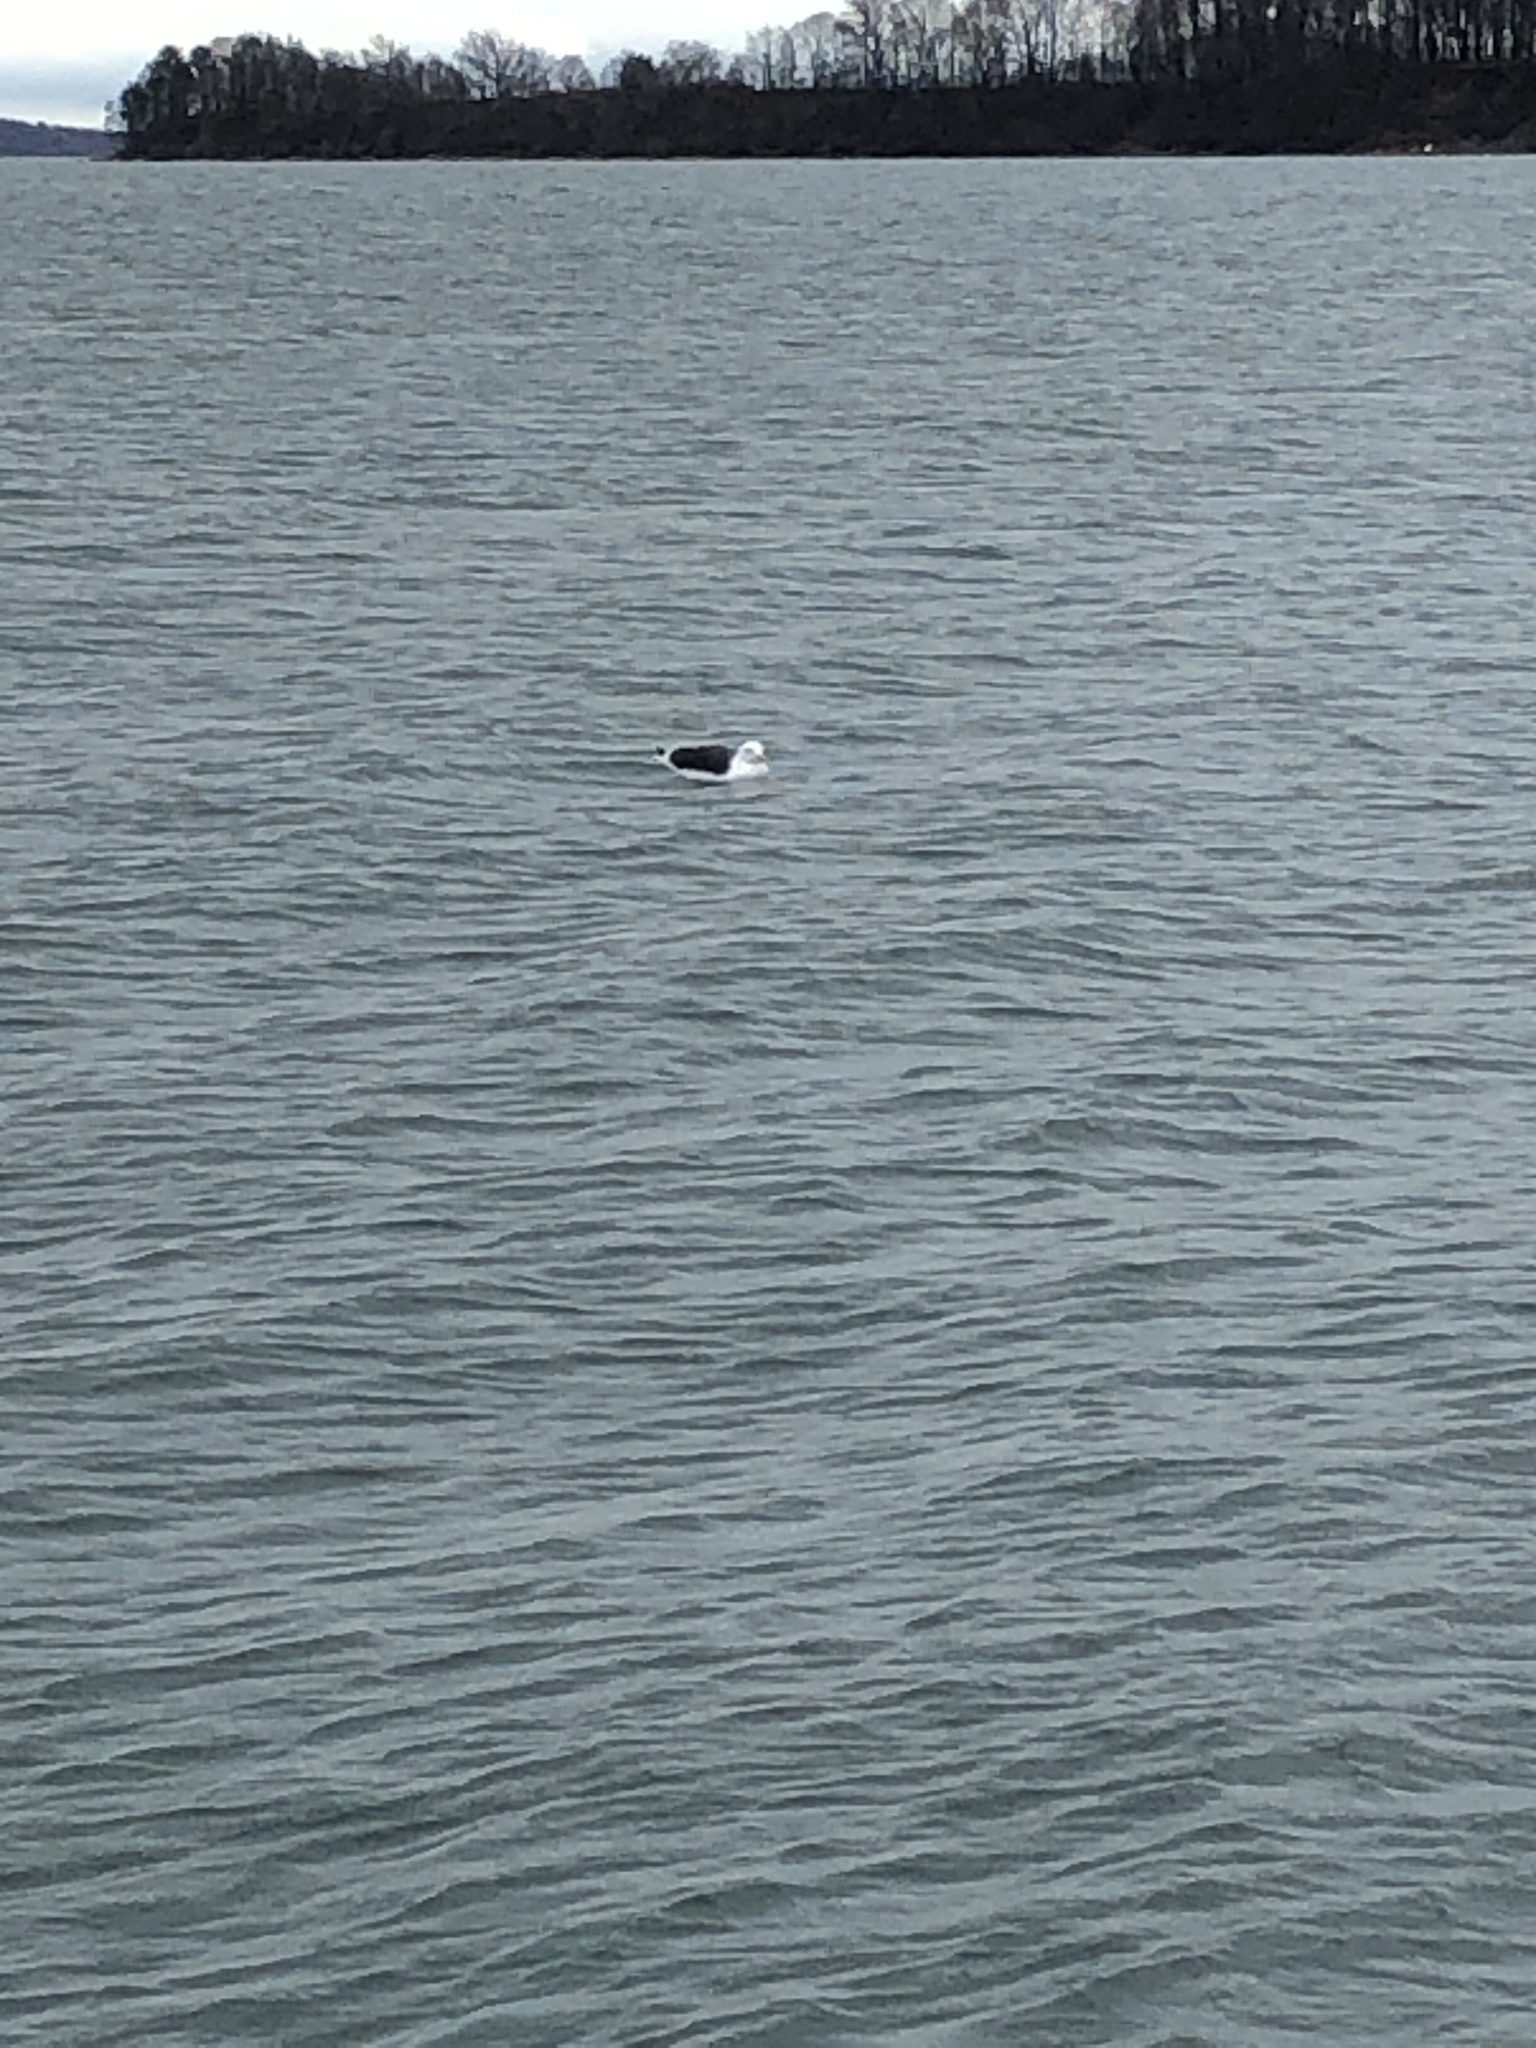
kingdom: Animalia
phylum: Chordata
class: Aves
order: Charadriiformes
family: Laridae
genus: Larus
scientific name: Larus marinus
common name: Great black-backed gull
